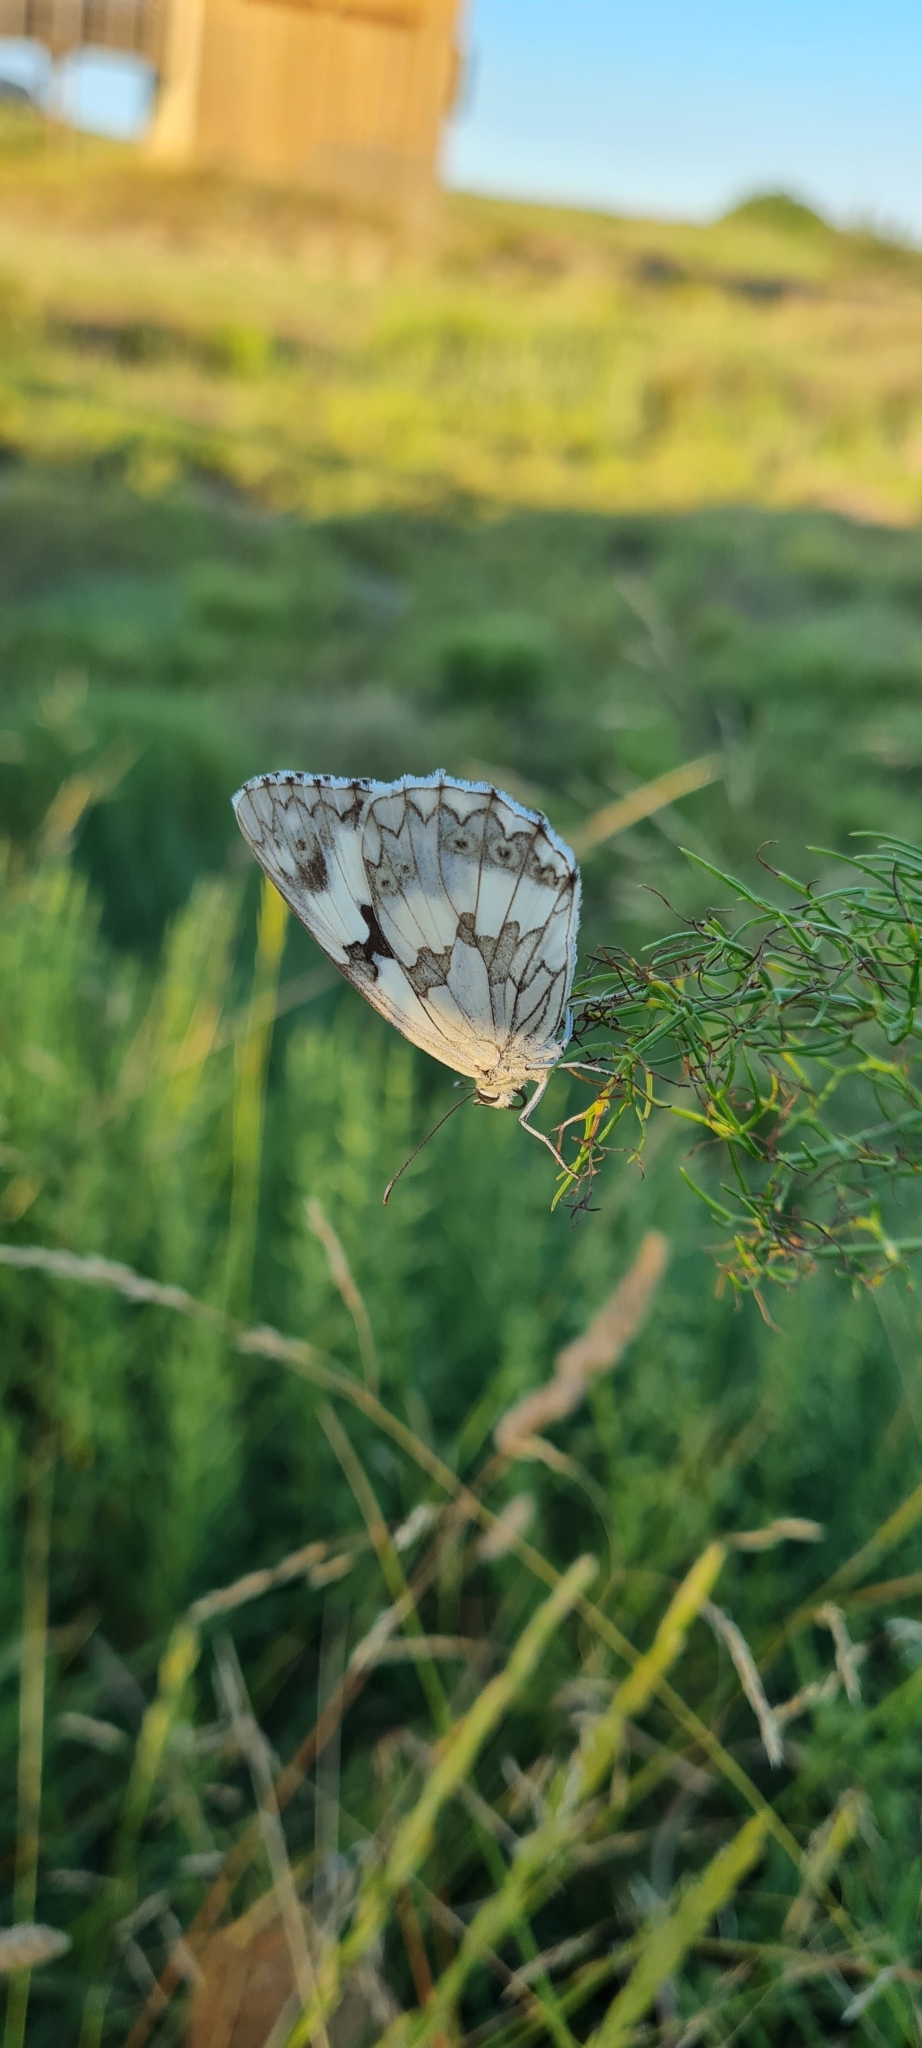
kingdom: Animalia
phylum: Arthropoda
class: Insecta
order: Lepidoptera
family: Nymphalidae
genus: Melanargia
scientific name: Melanargia lachesis
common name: Iberian marbled white
